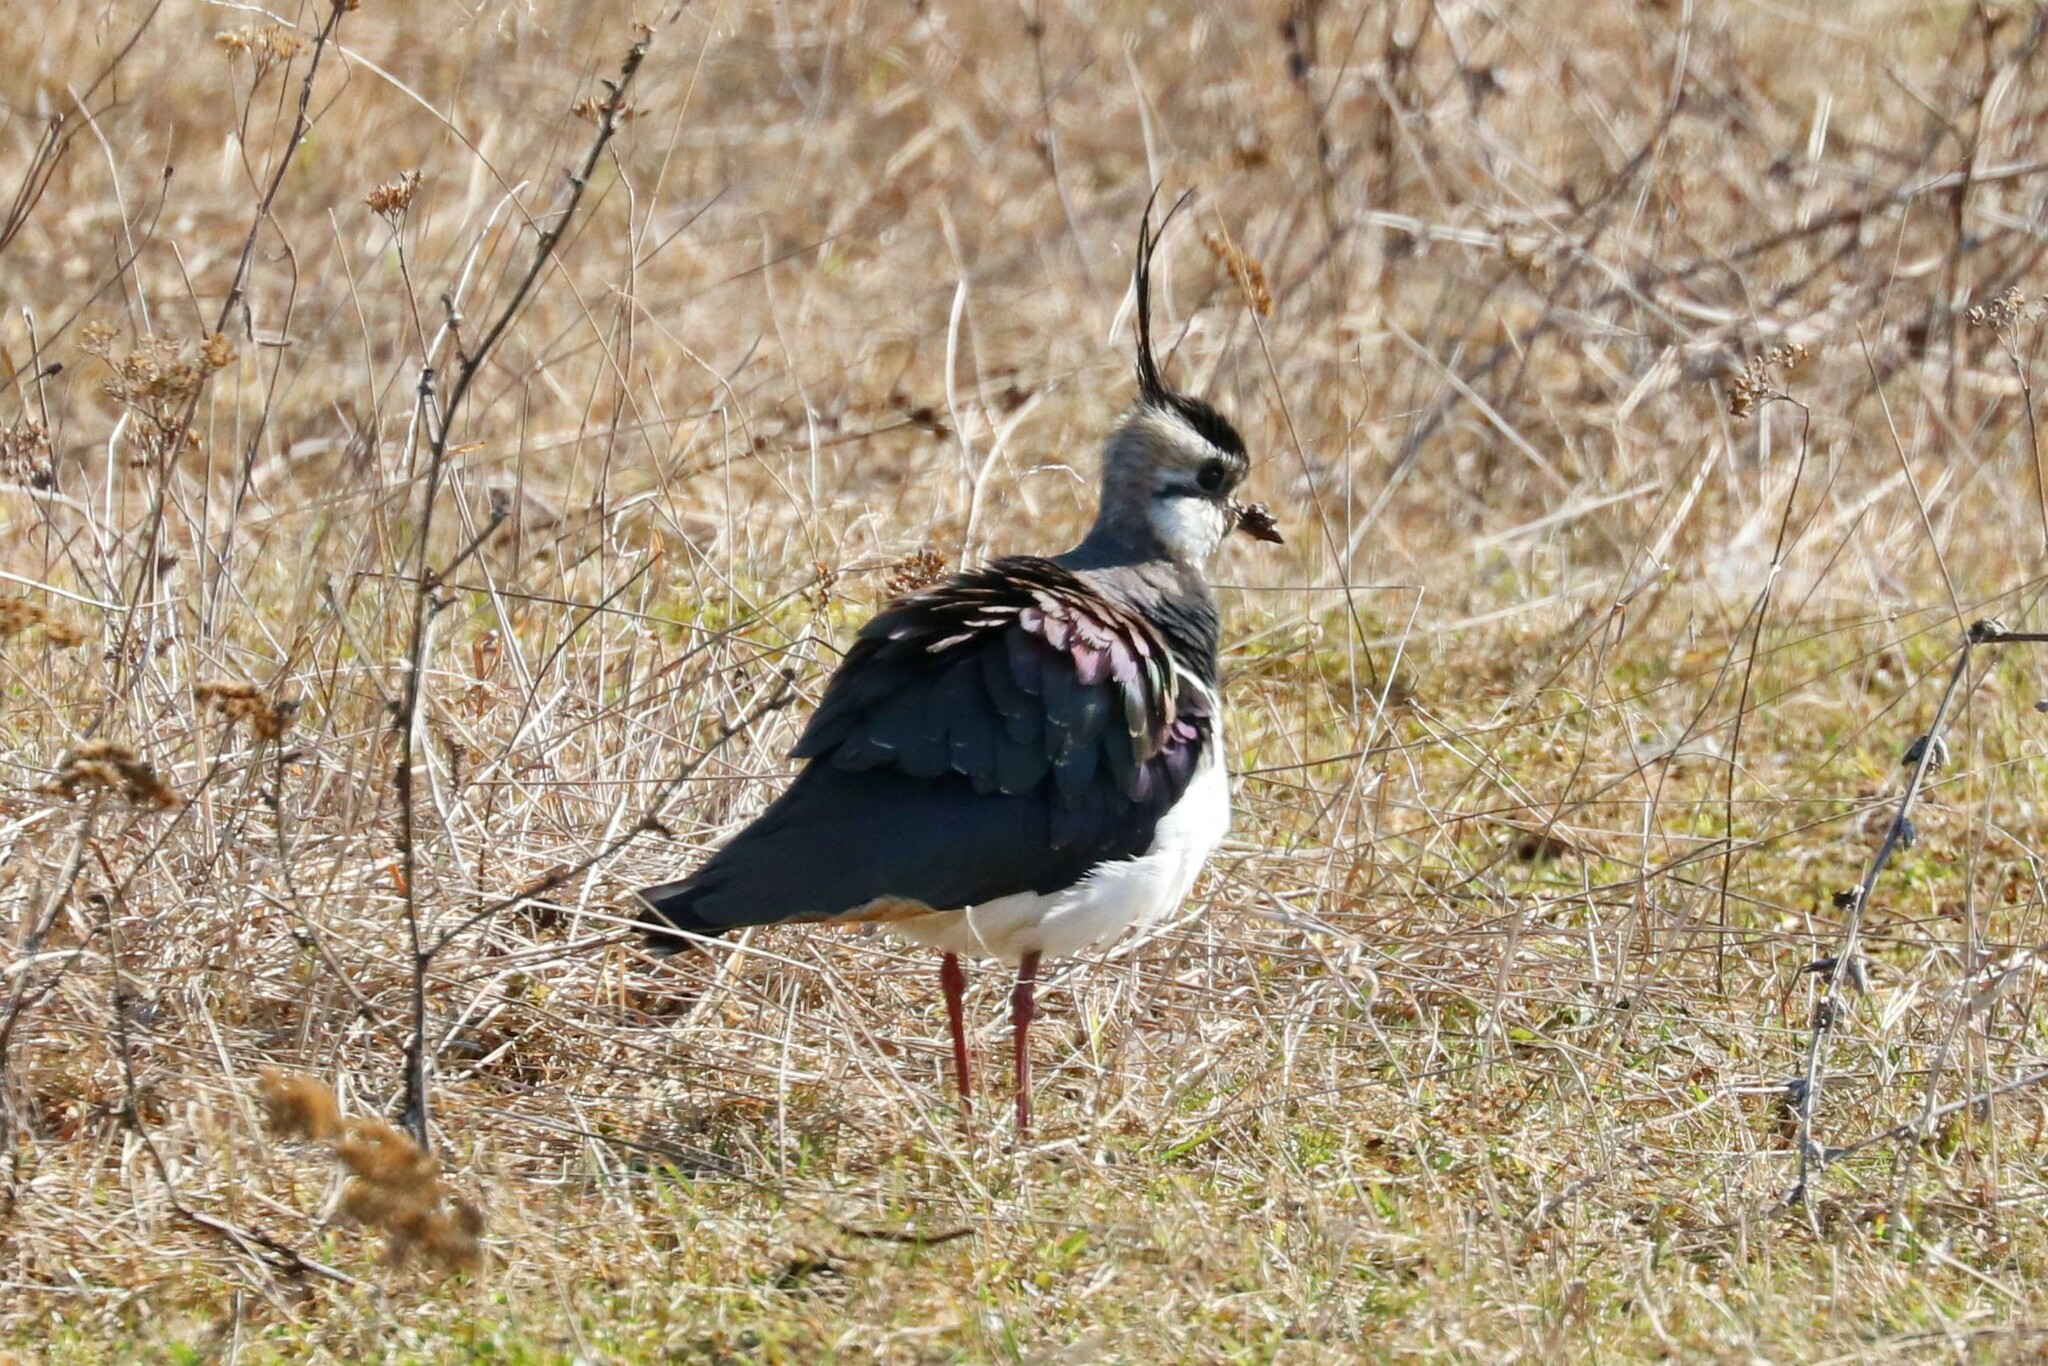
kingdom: Animalia
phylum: Chordata
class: Aves
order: Charadriiformes
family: Charadriidae
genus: Vanellus
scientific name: Vanellus vanellus
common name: Northern lapwing
